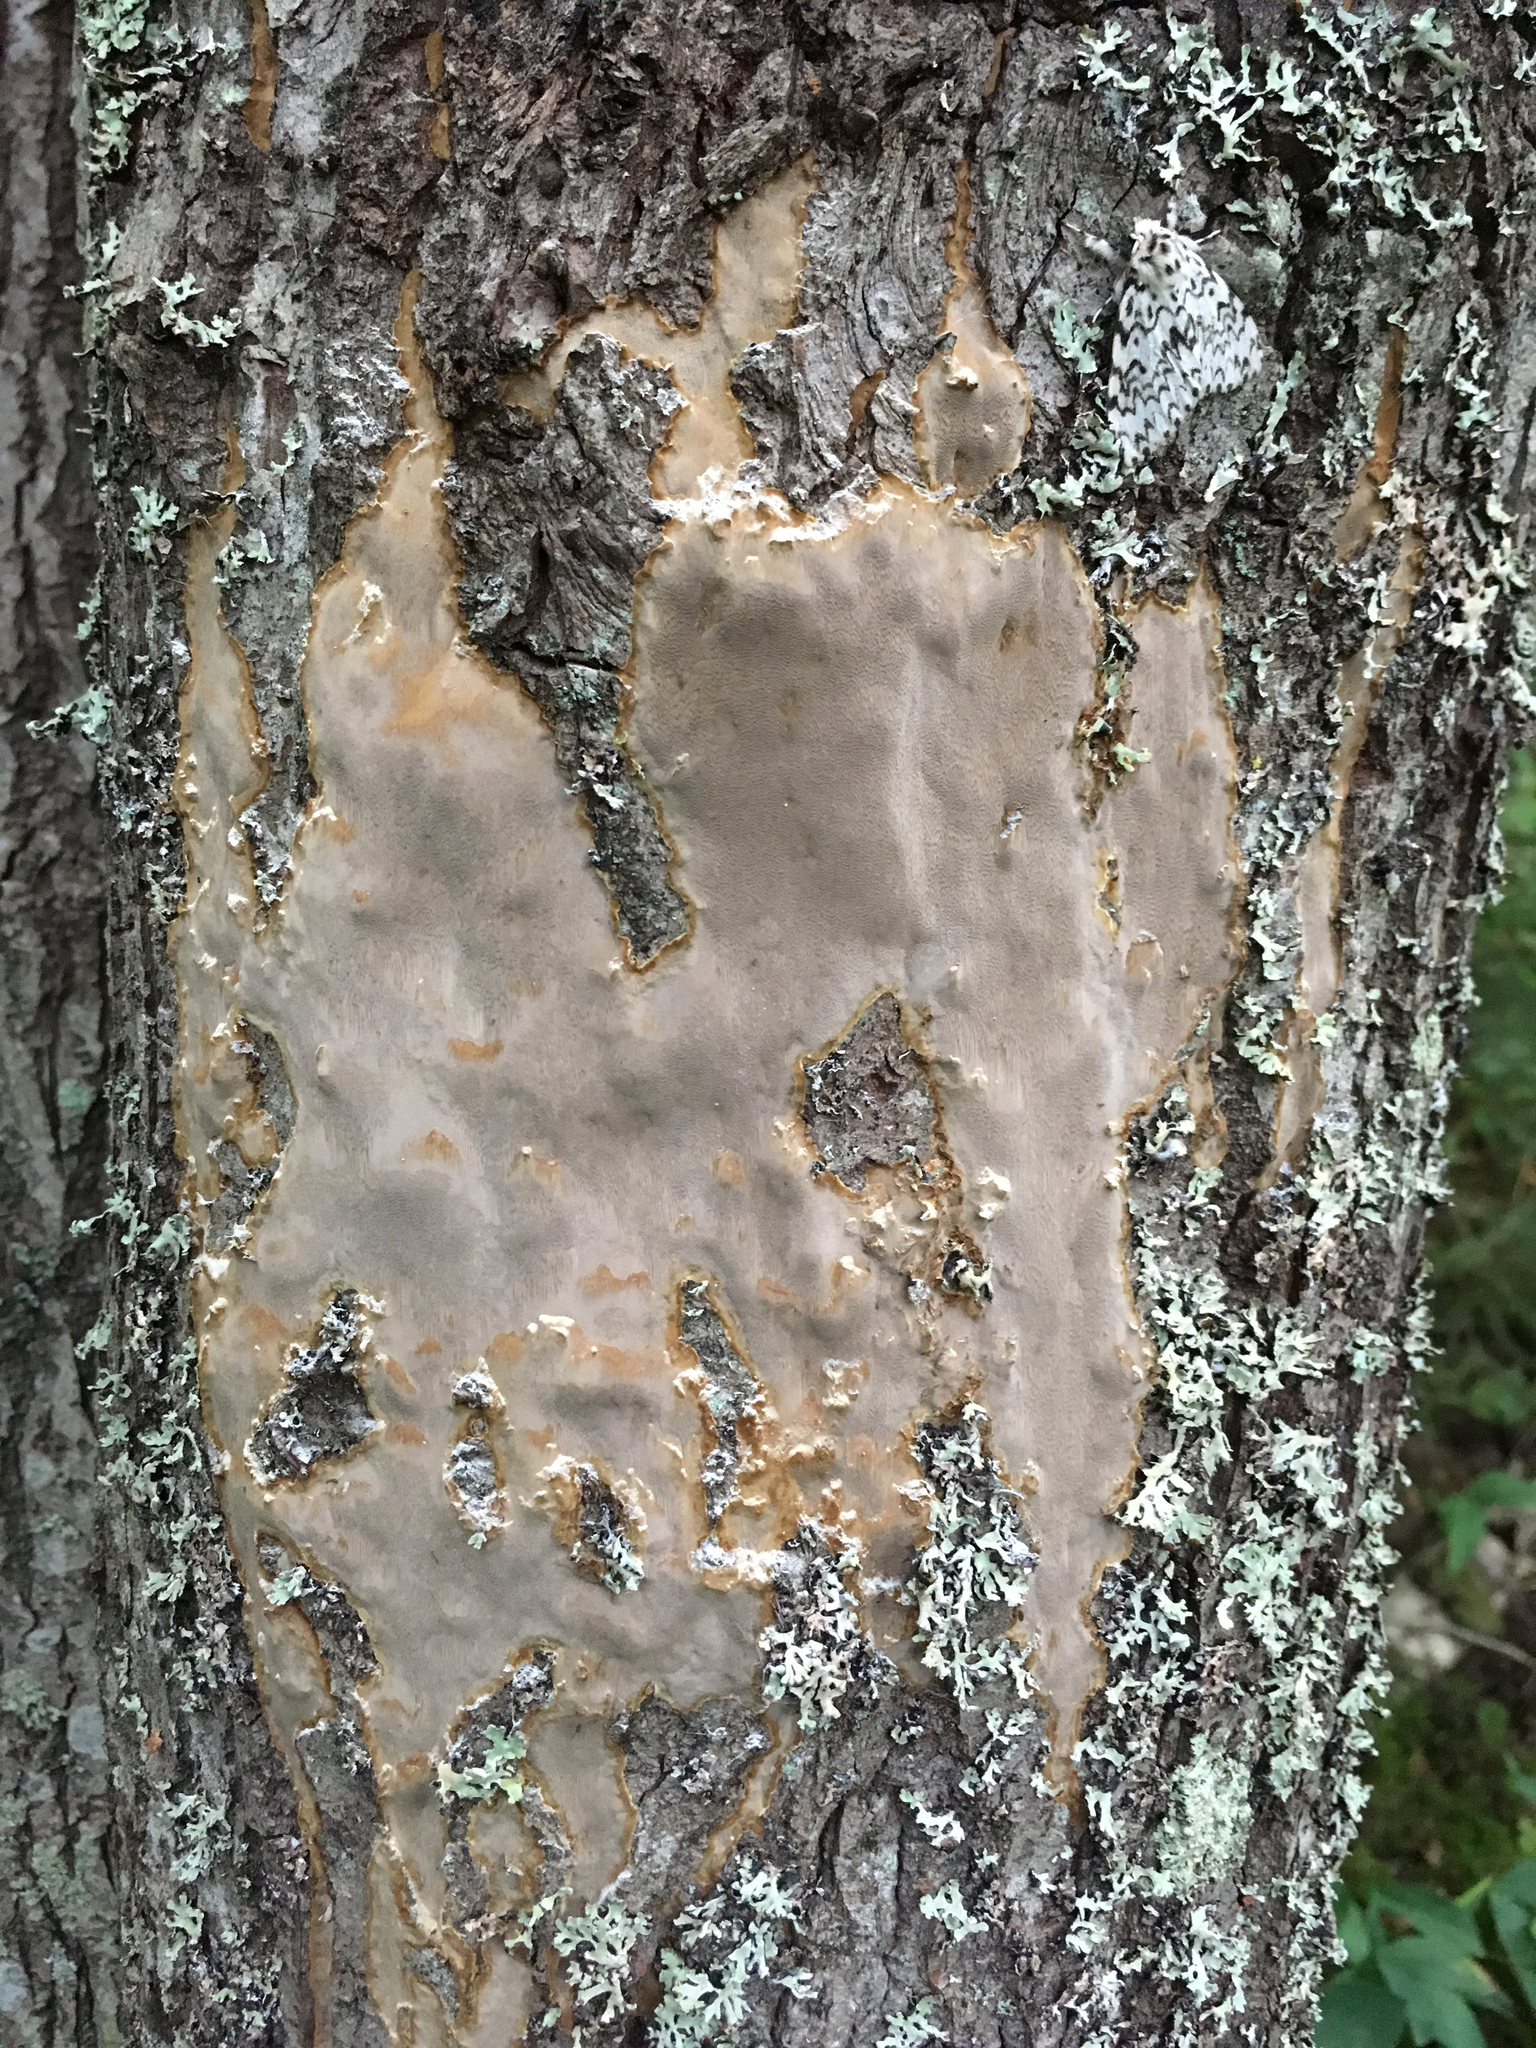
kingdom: Fungi
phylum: Basidiomycota
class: Agaricomycetes
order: Hymenochaetales
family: Hymenochaetaceae
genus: Fomitiporia
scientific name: Fomitiporia punctata
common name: Elbowpatch crust
